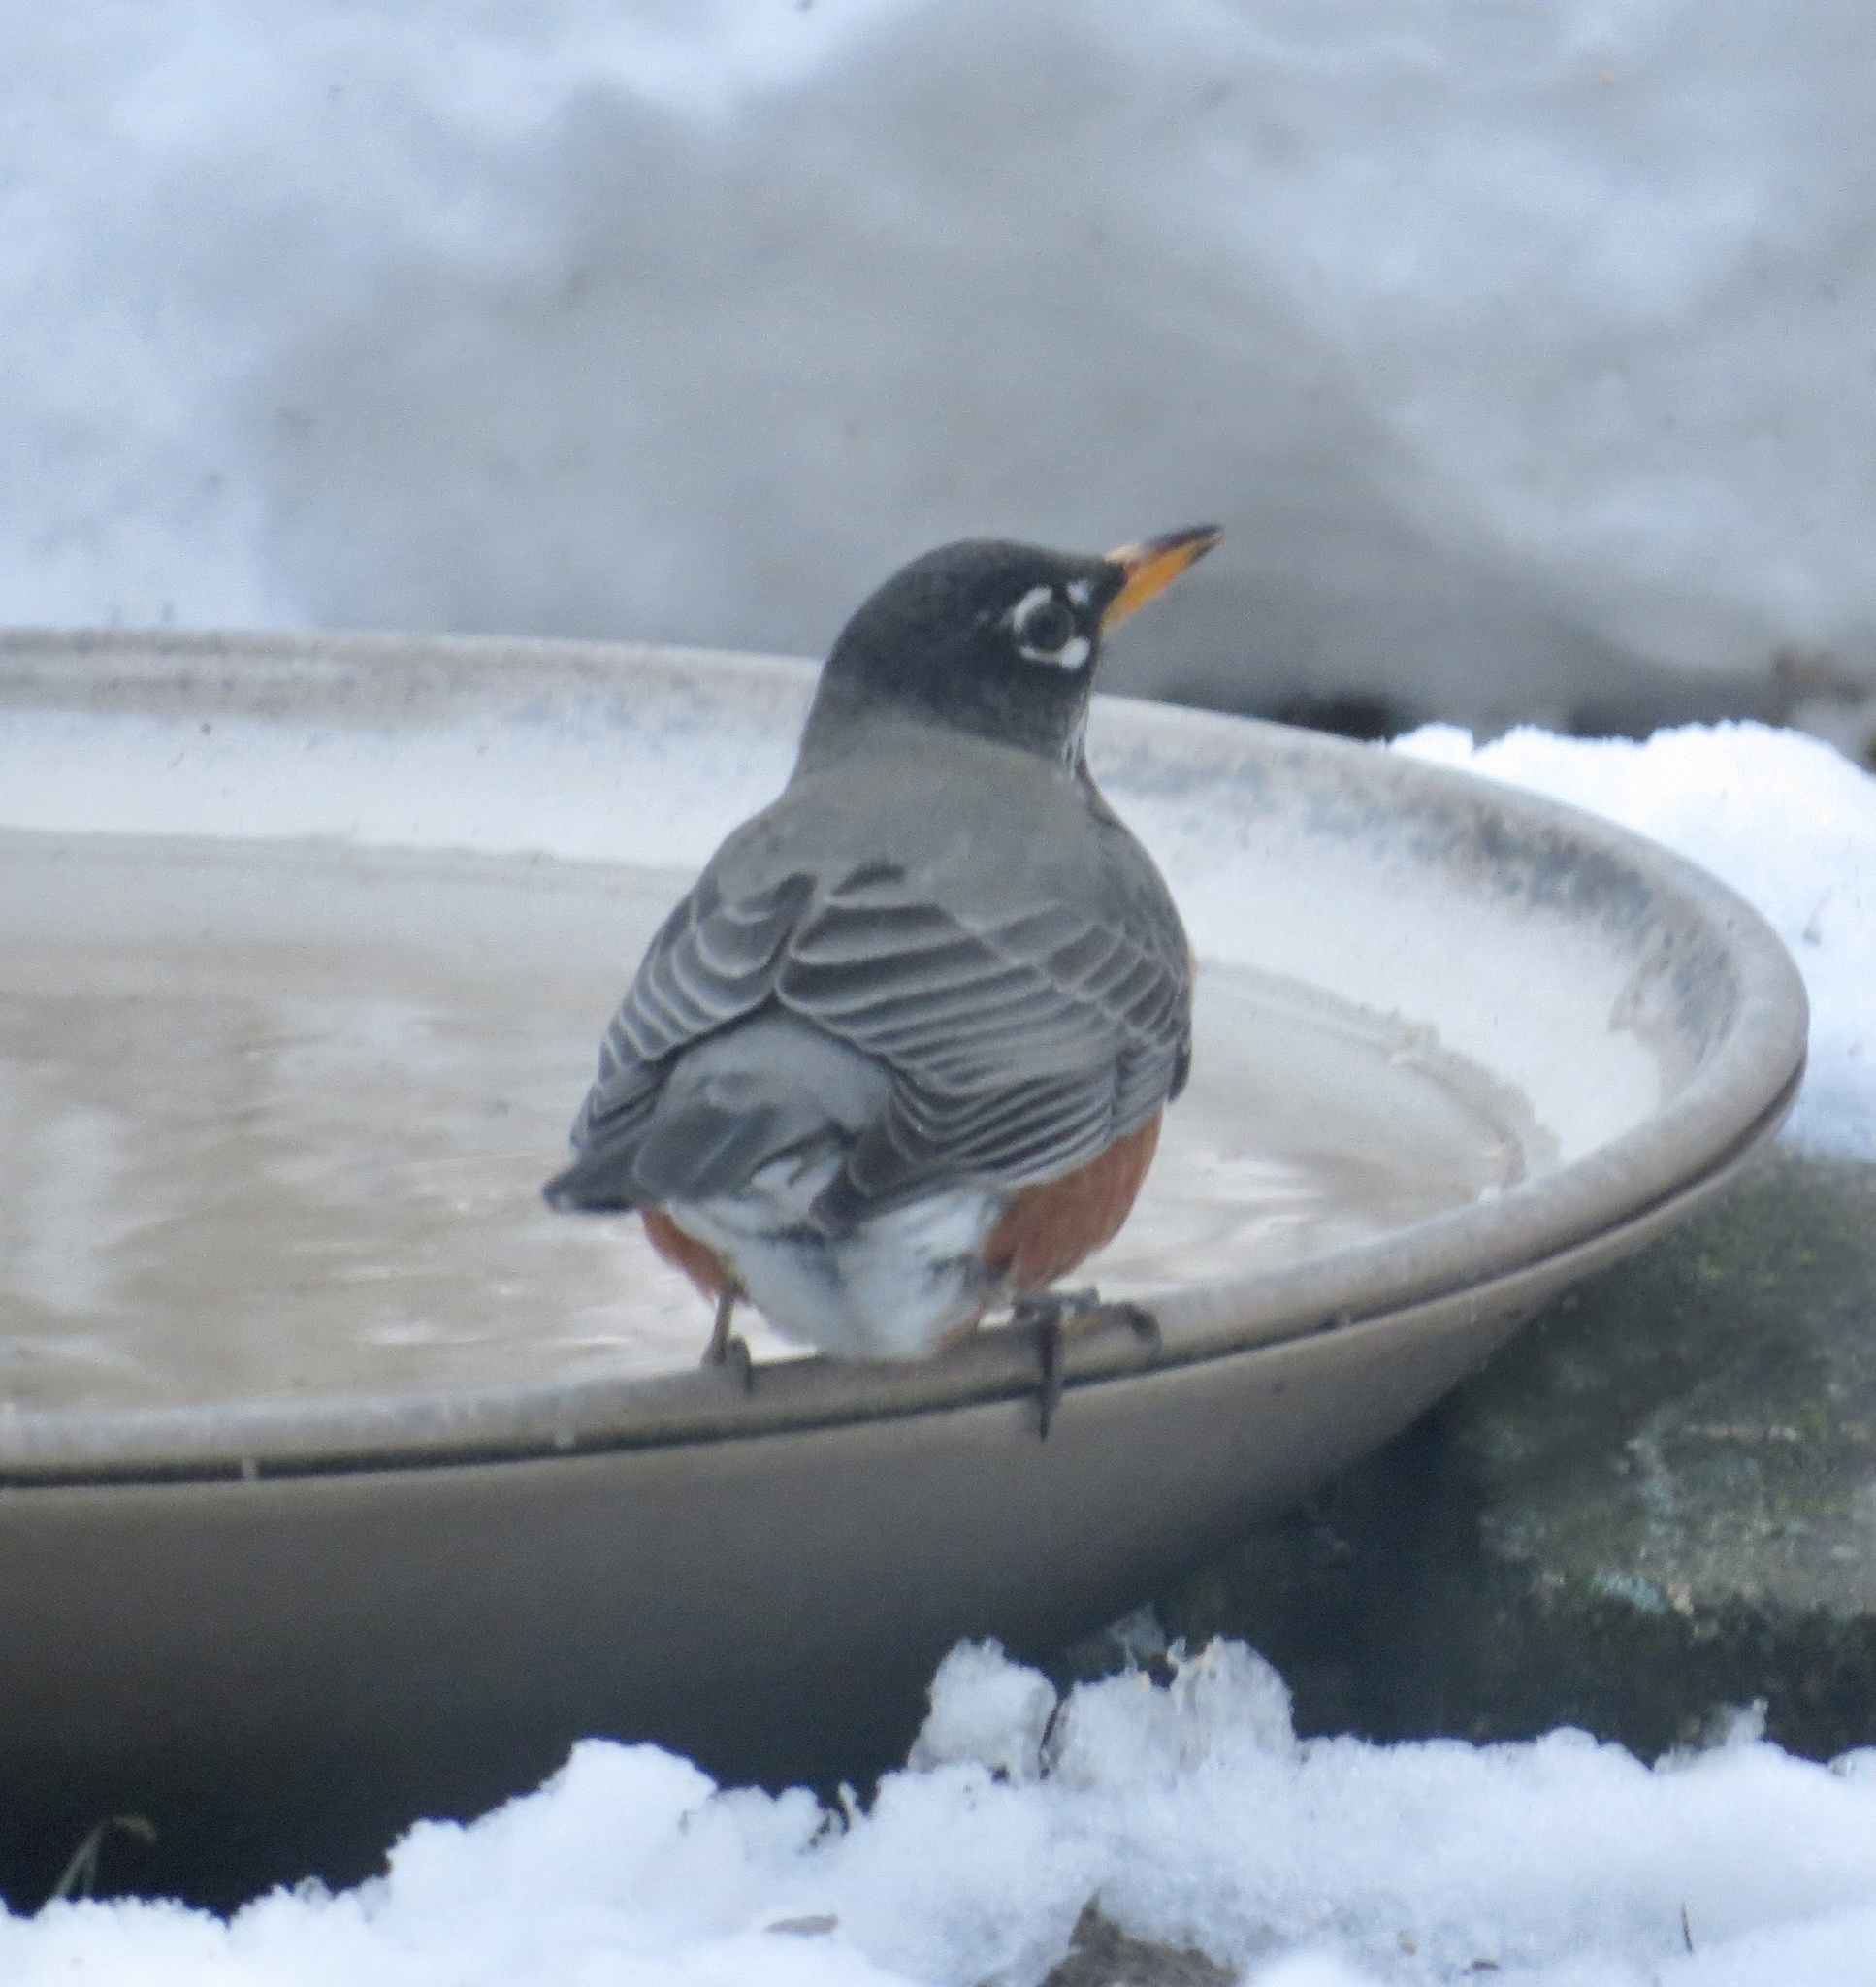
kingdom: Animalia
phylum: Chordata
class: Aves
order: Passeriformes
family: Turdidae
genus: Turdus
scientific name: Turdus migratorius
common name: American robin
